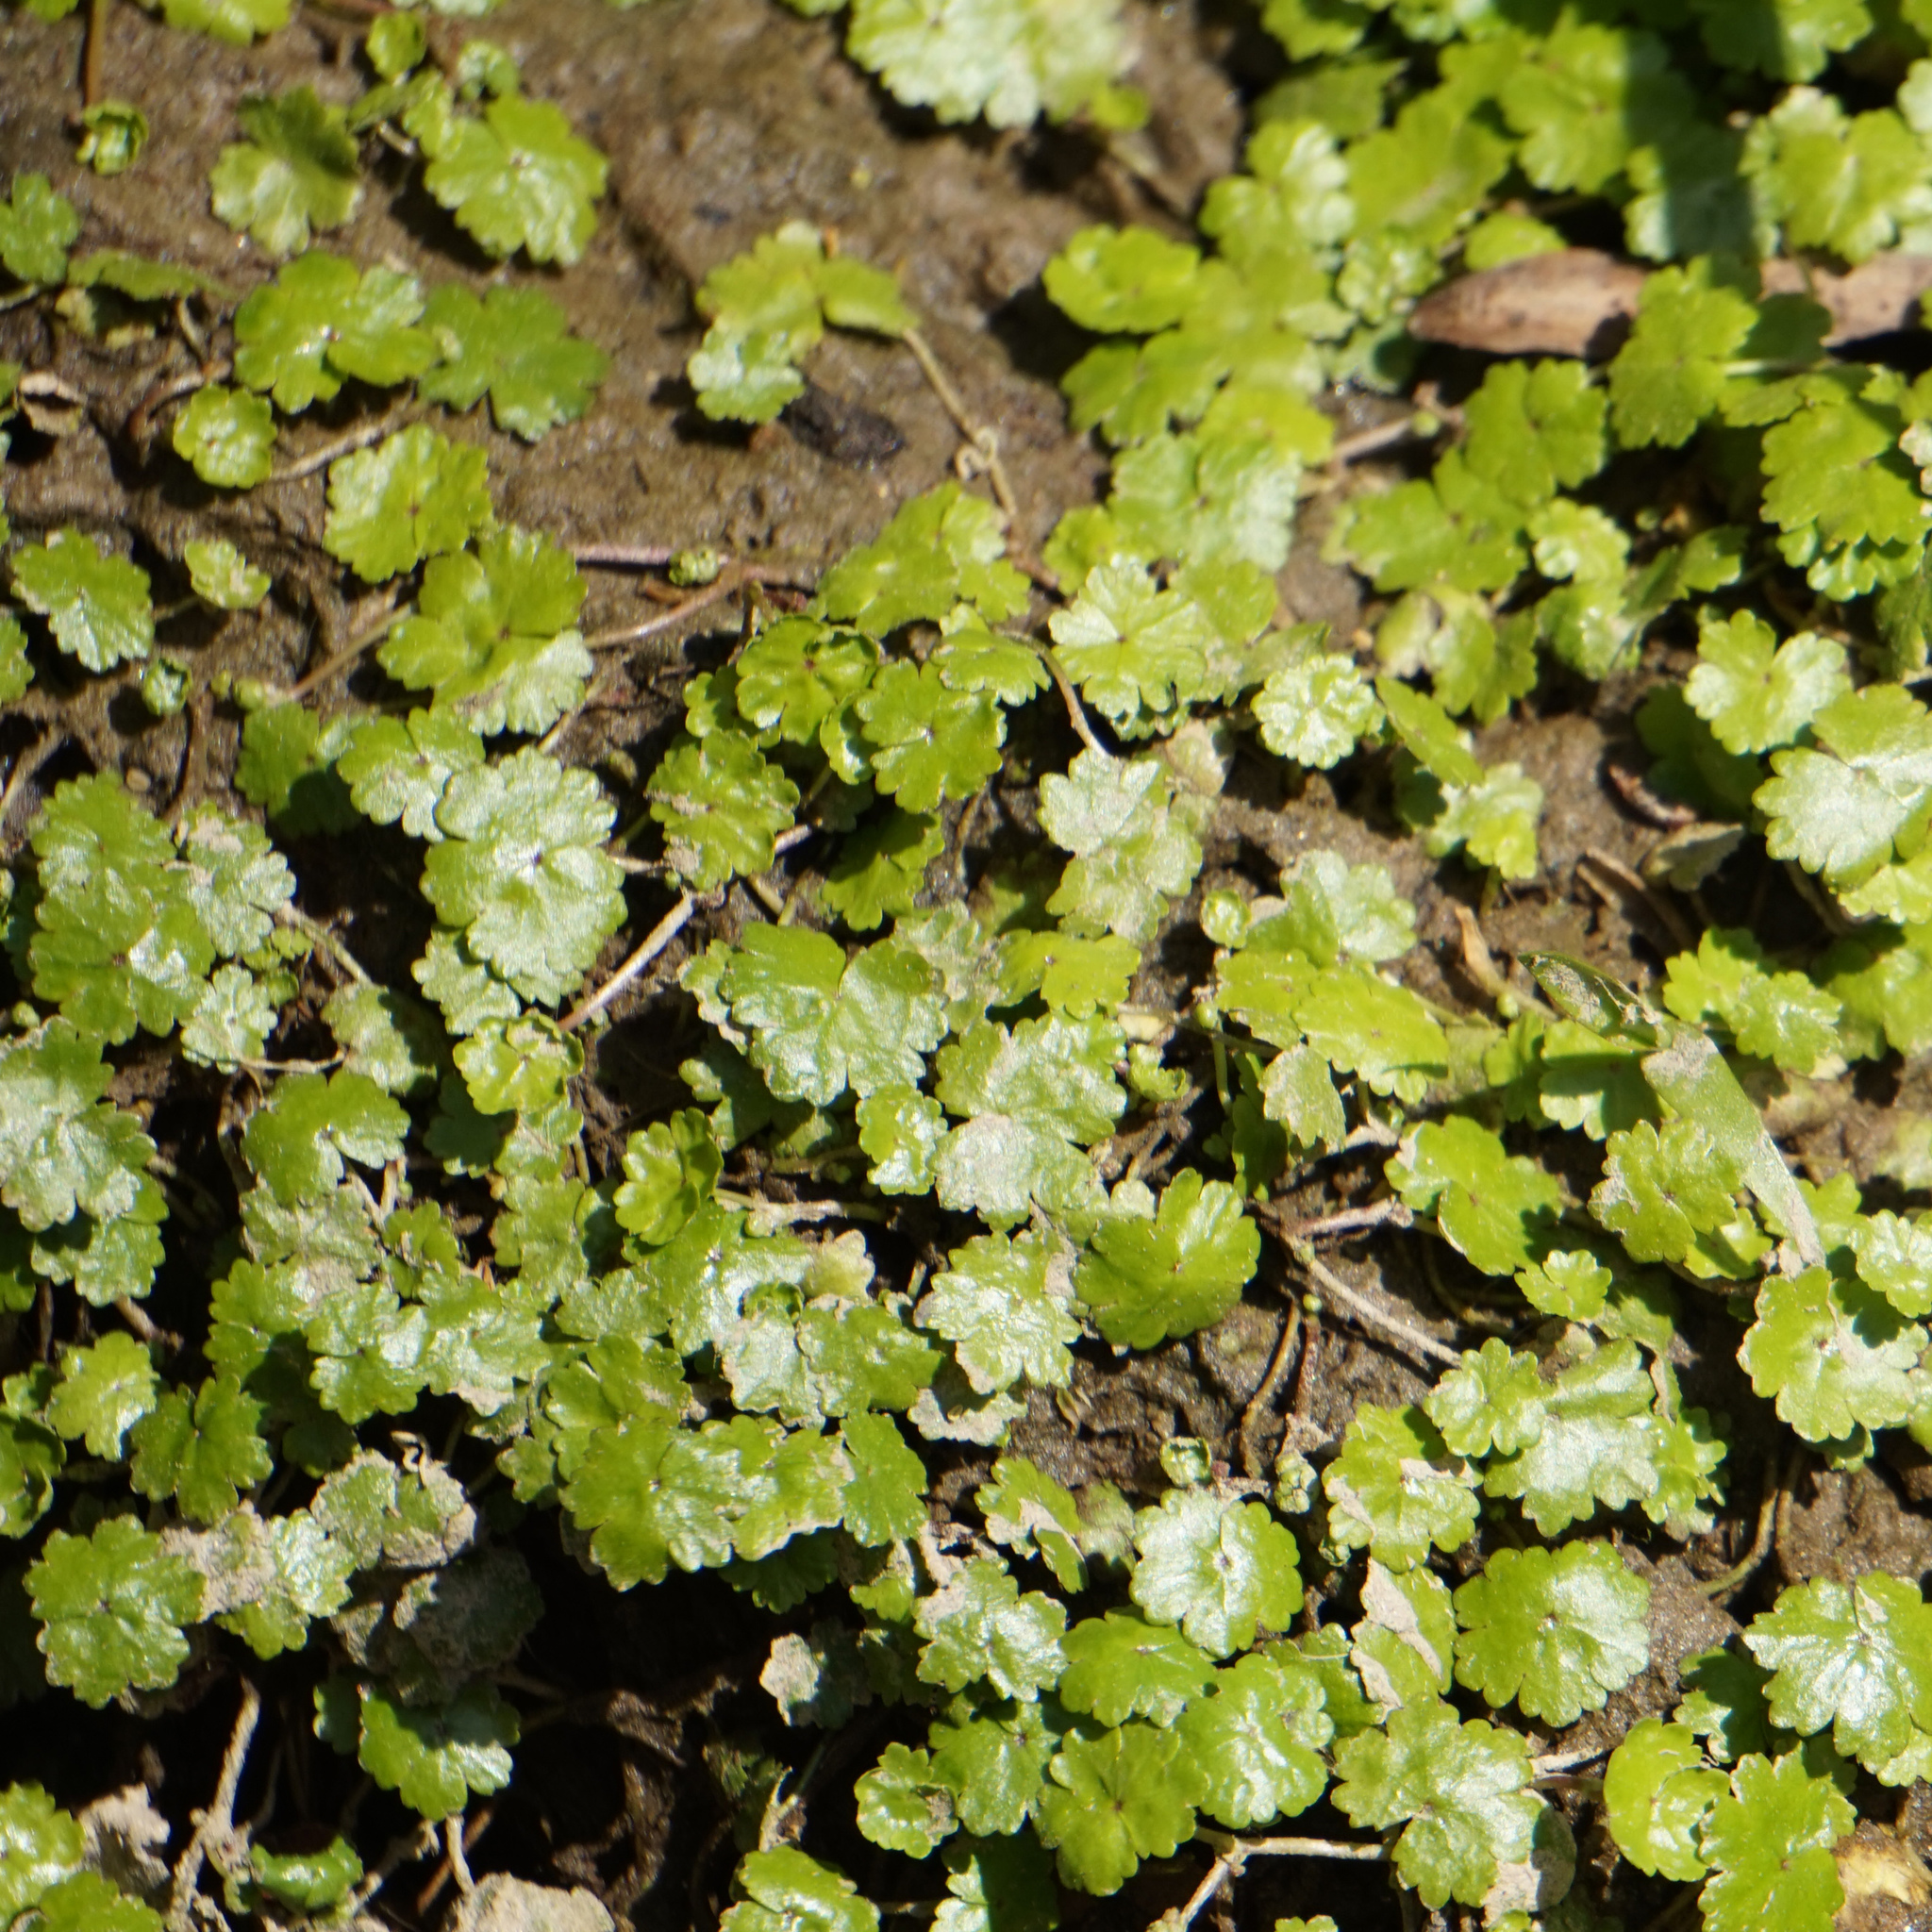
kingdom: Plantae
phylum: Tracheophyta
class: Magnoliopsida
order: Apiales
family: Araliaceae
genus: Hydrocotyle
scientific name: Hydrocotyle sibthorpioides
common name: Lawn marshpennywort
